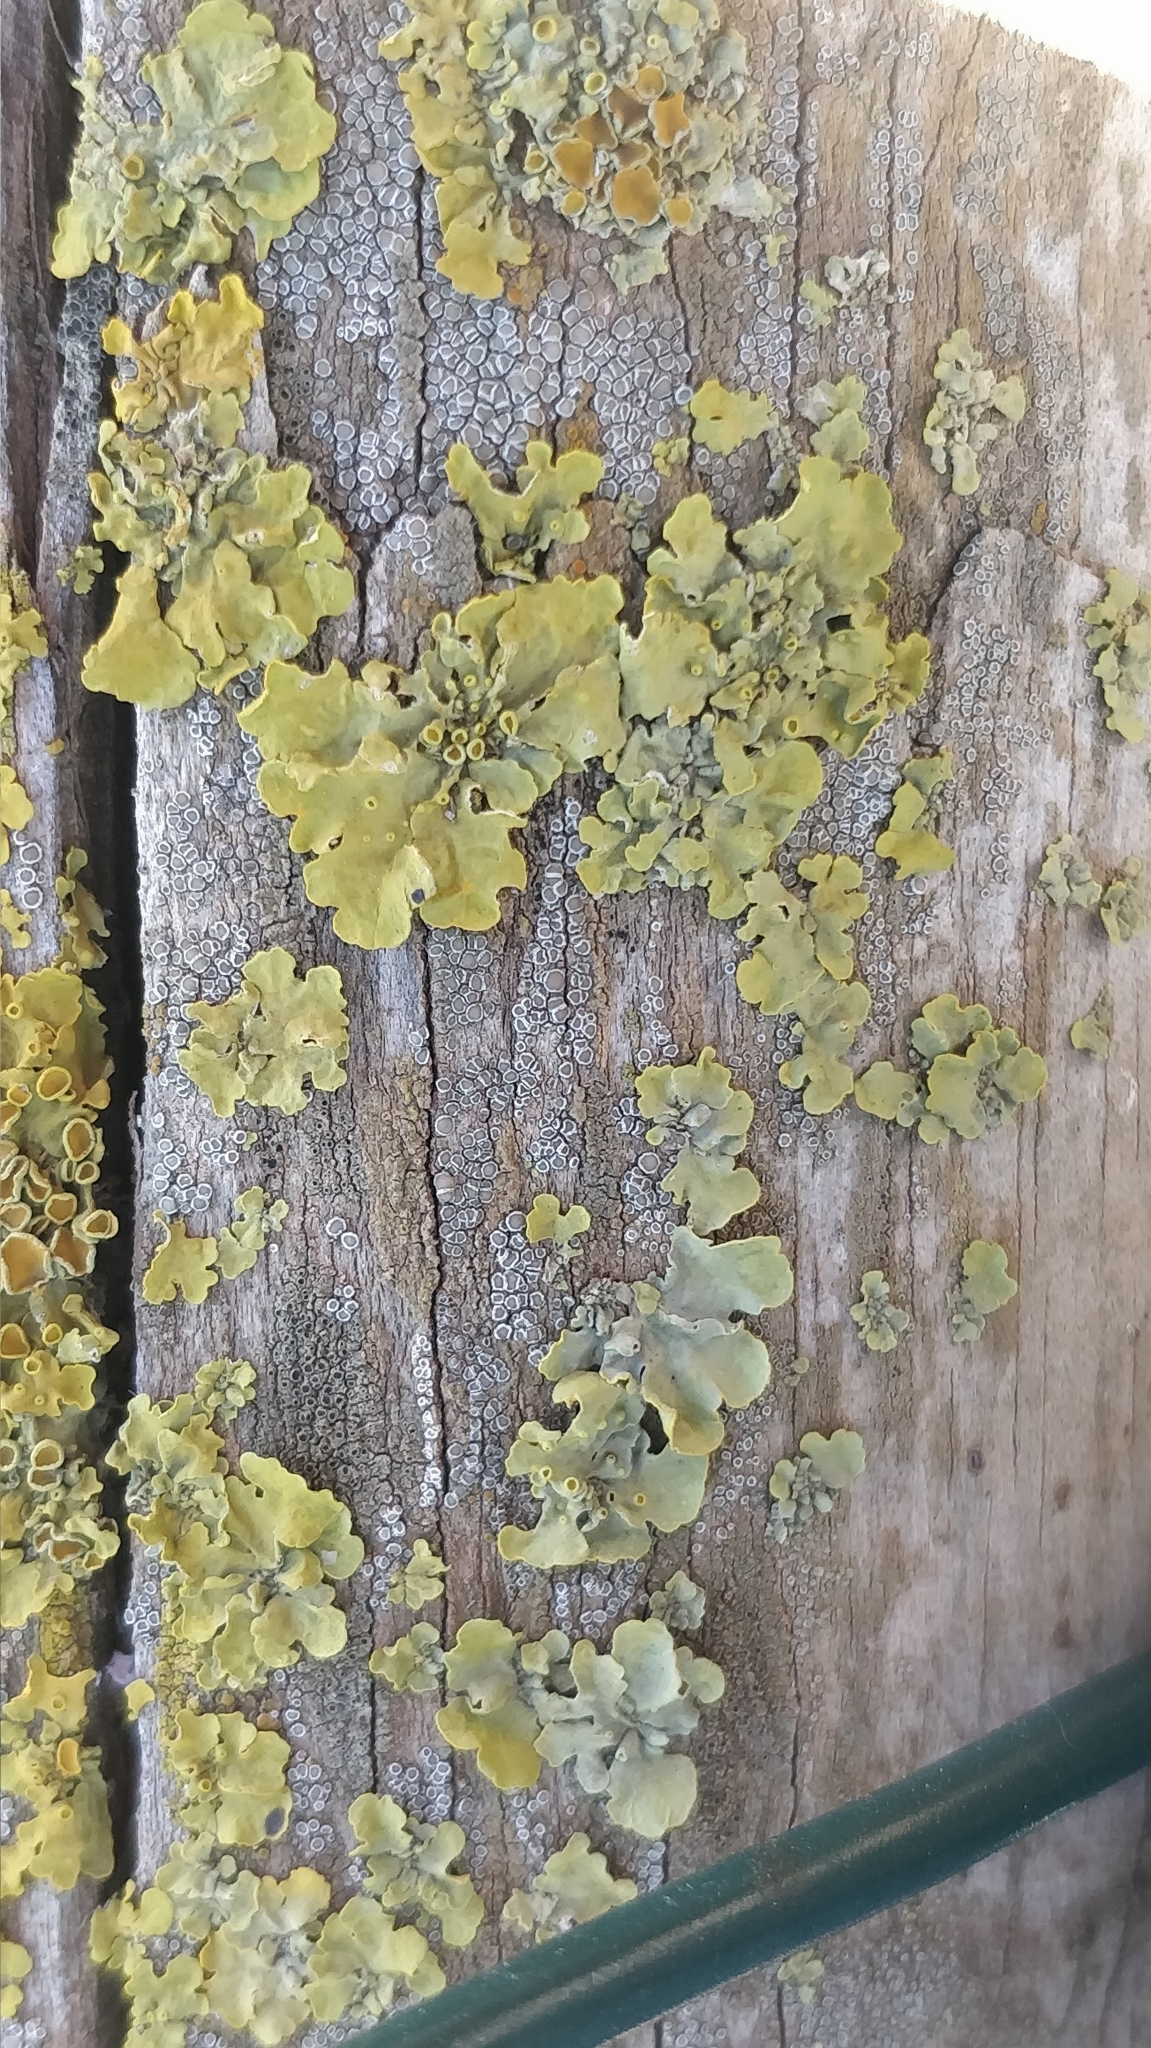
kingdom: Fungi
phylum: Ascomycota
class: Lecanoromycetes
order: Teloschistales
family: Teloschistaceae
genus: Xanthoria
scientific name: Xanthoria parietina
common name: Common orange lichen
